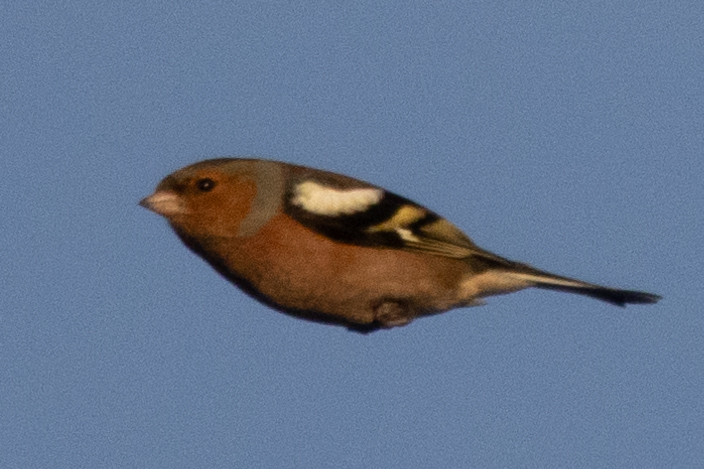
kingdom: Animalia
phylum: Chordata
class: Aves
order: Passeriformes
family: Fringillidae
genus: Fringilla
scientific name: Fringilla coelebs
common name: Common chaffinch
